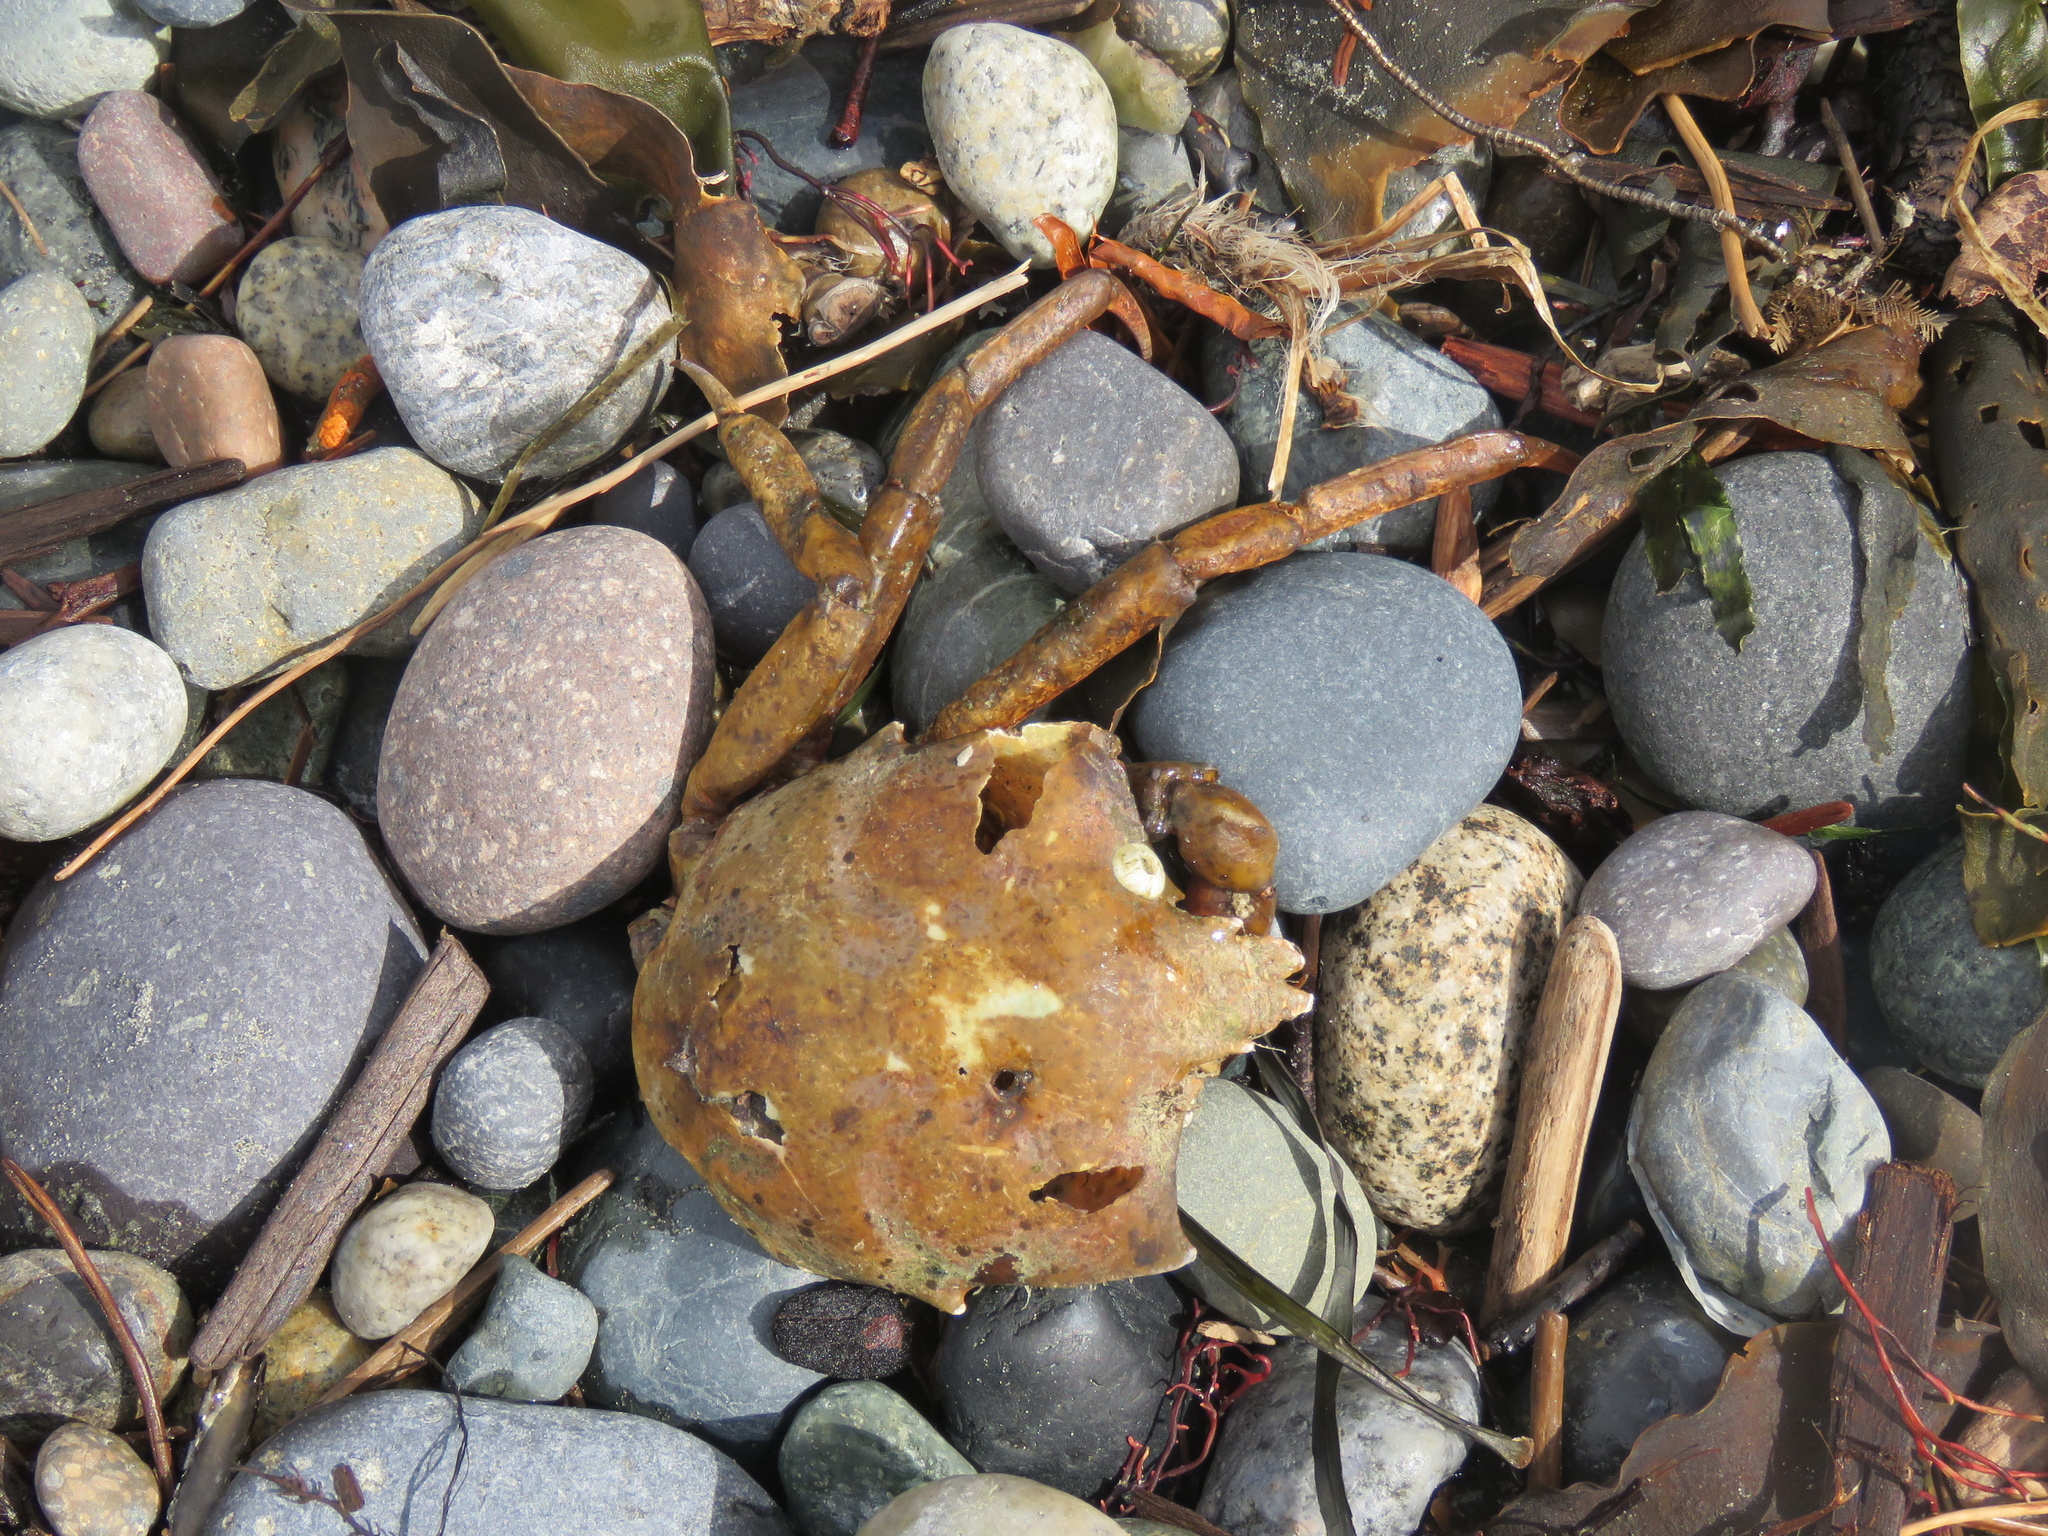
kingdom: Animalia
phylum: Arthropoda
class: Malacostraca
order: Decapoda
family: Epialtidae
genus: Pugettia
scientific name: Pugettia producta
